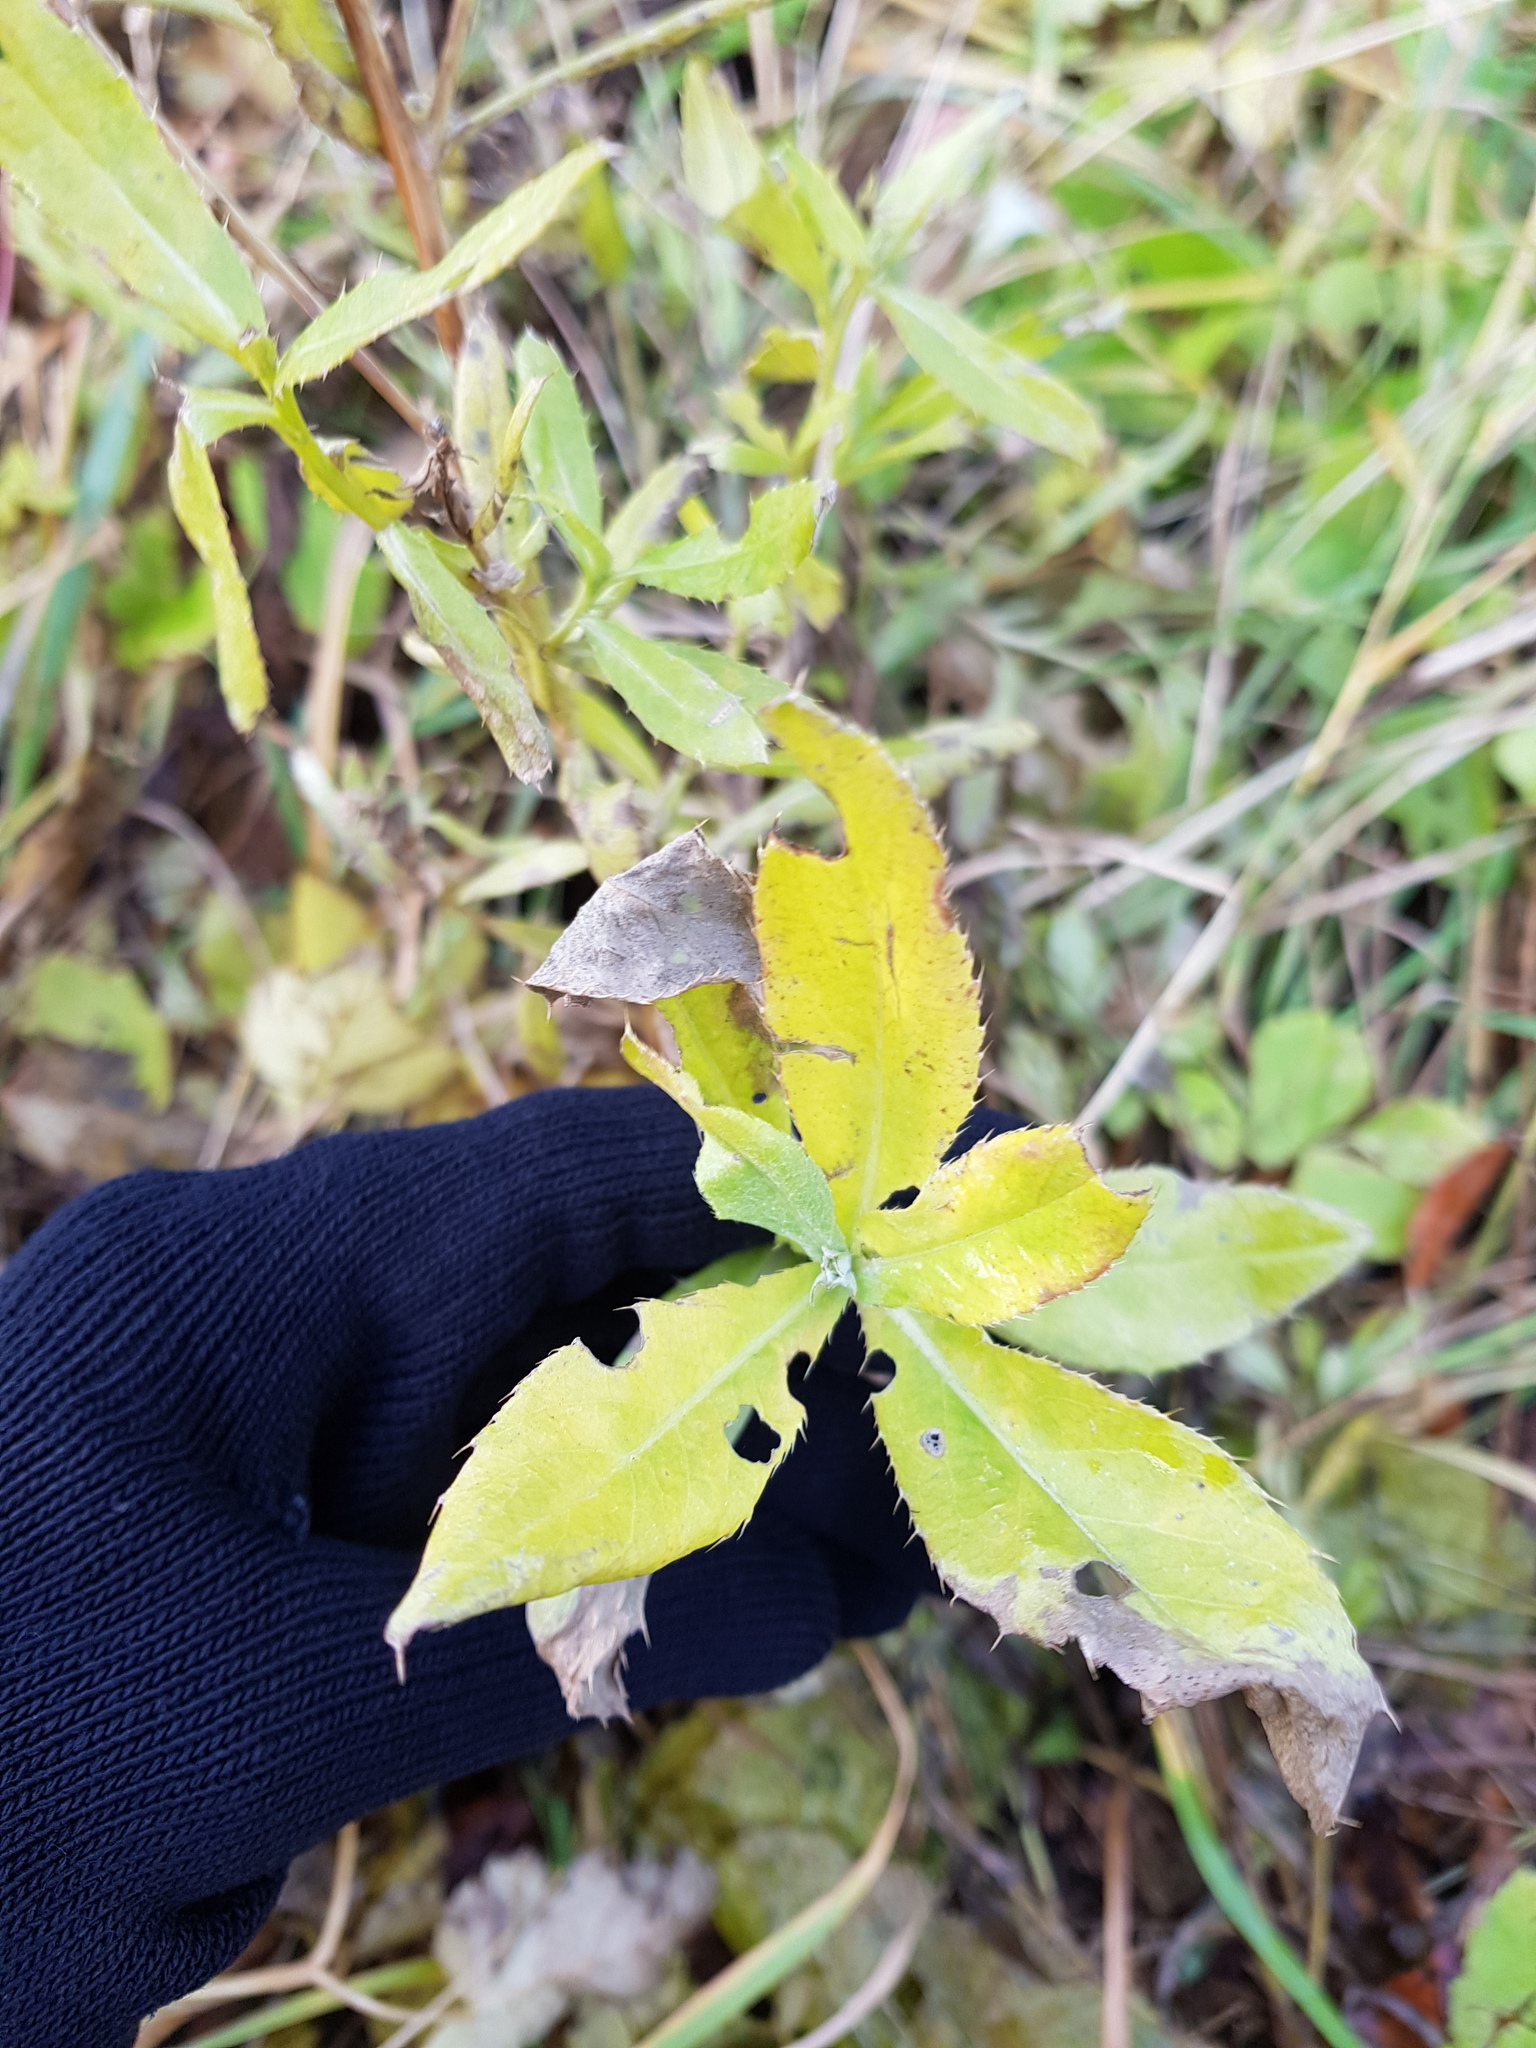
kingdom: Plantae
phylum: Tracheophyta
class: Magnoliopsida
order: Asterales
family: Asteraceae
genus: Cirsium
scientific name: Cirsium arvense
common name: Creeping thistle
